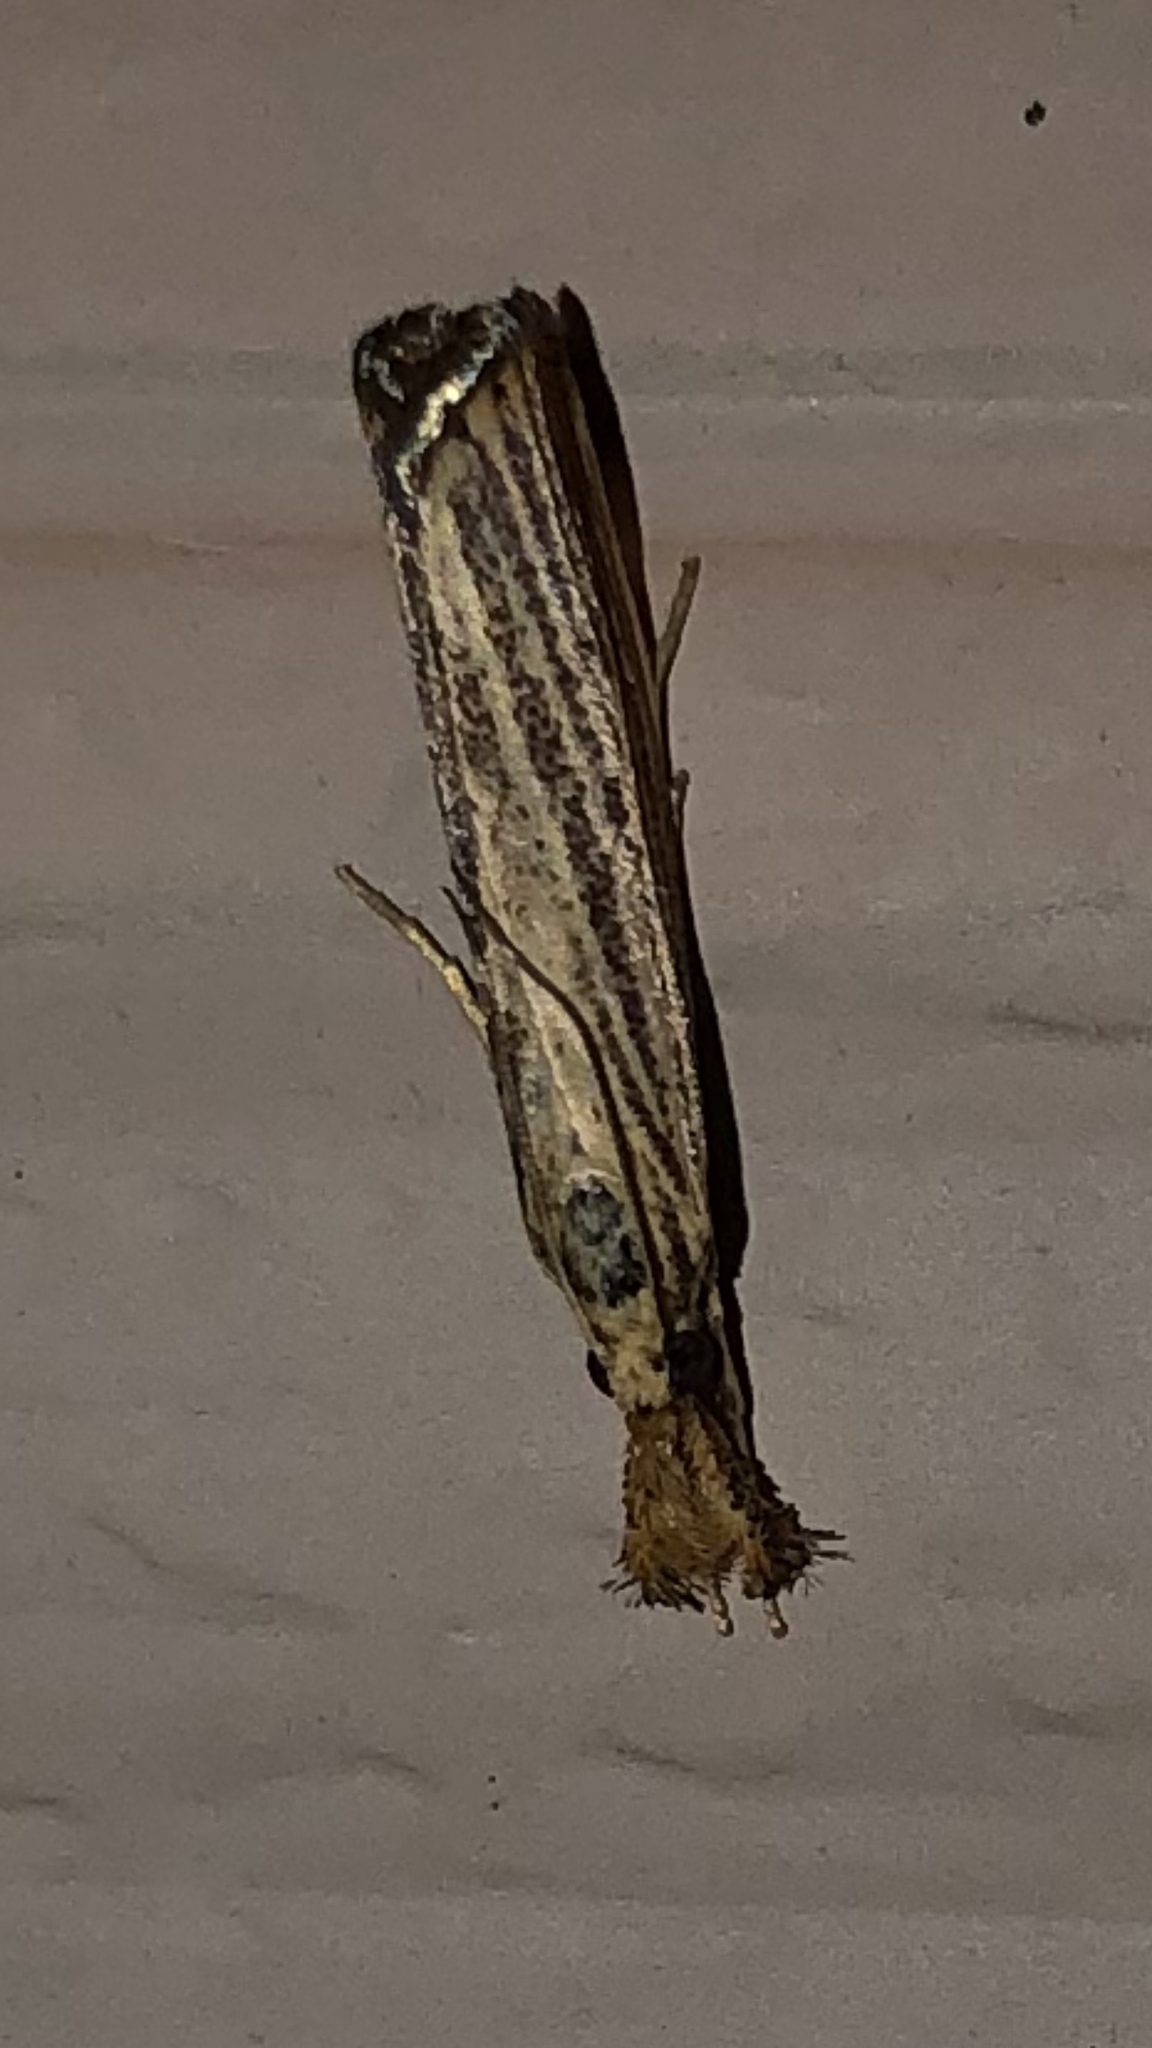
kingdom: Animalia
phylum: Arthropoda
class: Insecta
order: Lepidoptera
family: Crambidae
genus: Agriphila
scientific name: Agriphila vulgivagellus
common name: Vagabond crambus moth
